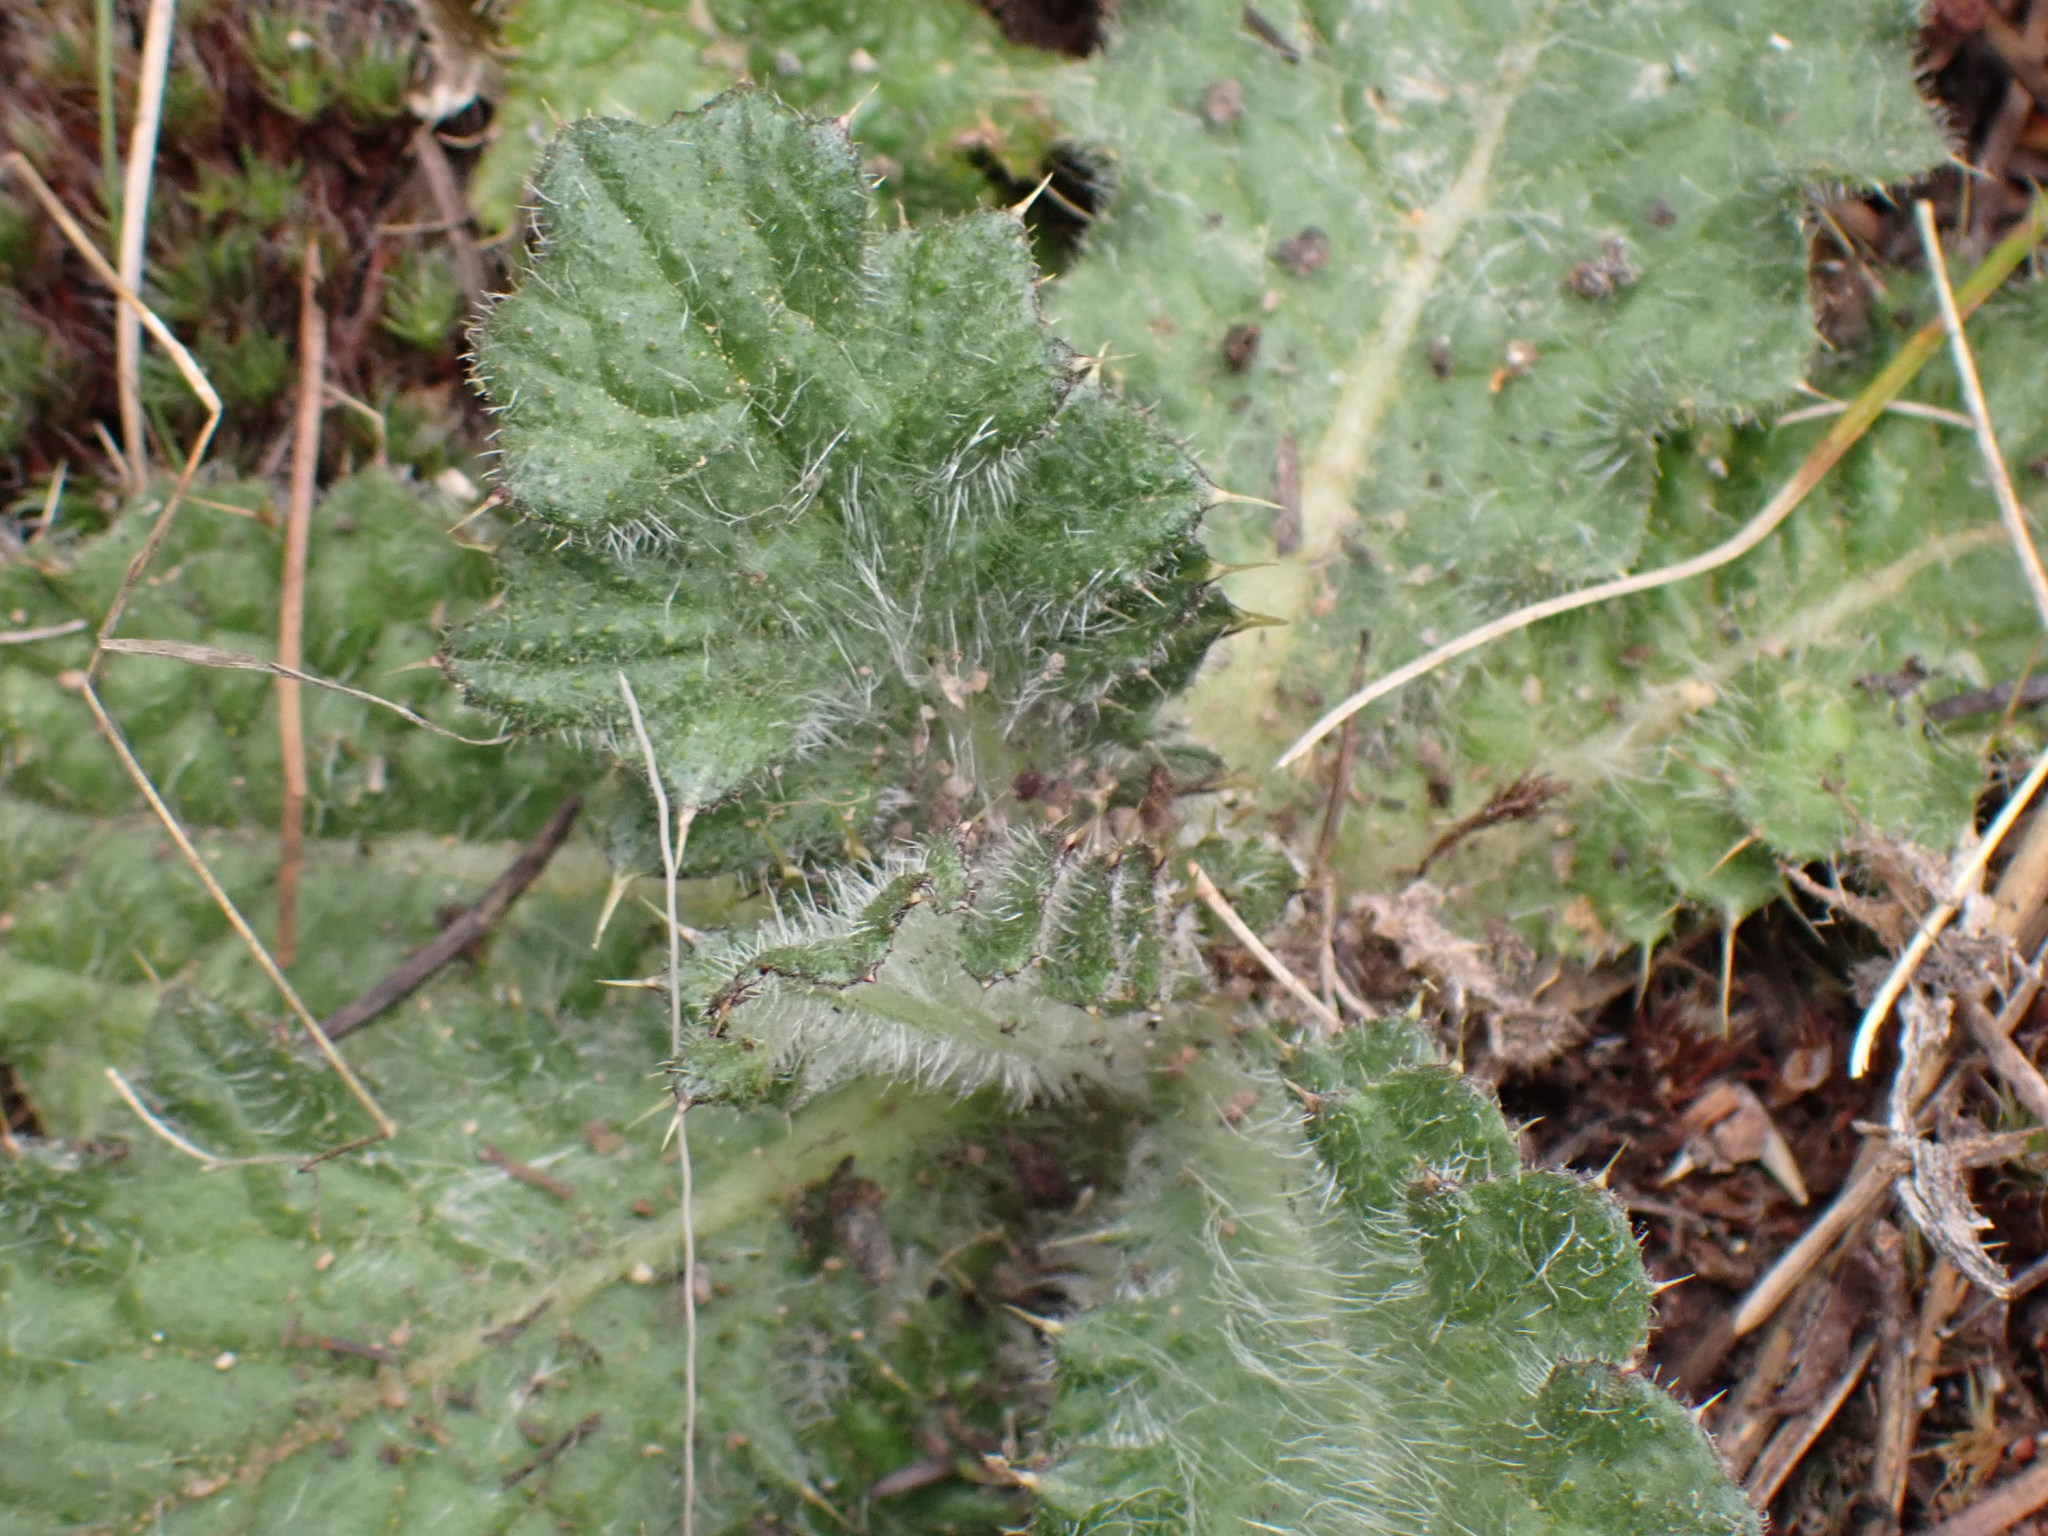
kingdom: Plantae
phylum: Tracheophyta
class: Magnoliopsida
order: Asterales
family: Asteraceae
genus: Cirsium
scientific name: Cirsium vulgare
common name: Bull thistle
